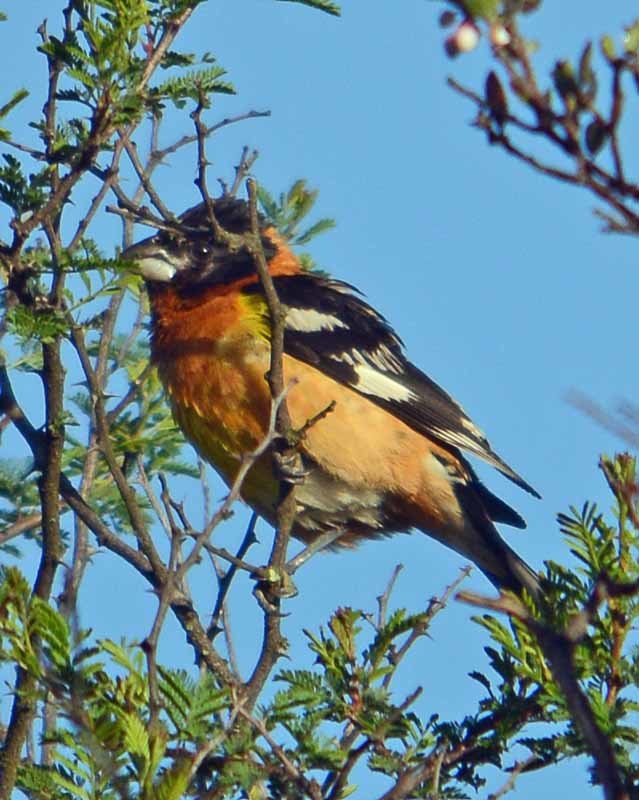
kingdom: Animalia
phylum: Chordata
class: Aves
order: Passeriformes
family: Cardinalidae
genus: Pheucticus
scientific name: Pheucticus melanocephalus
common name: Black-headed grosbeak
